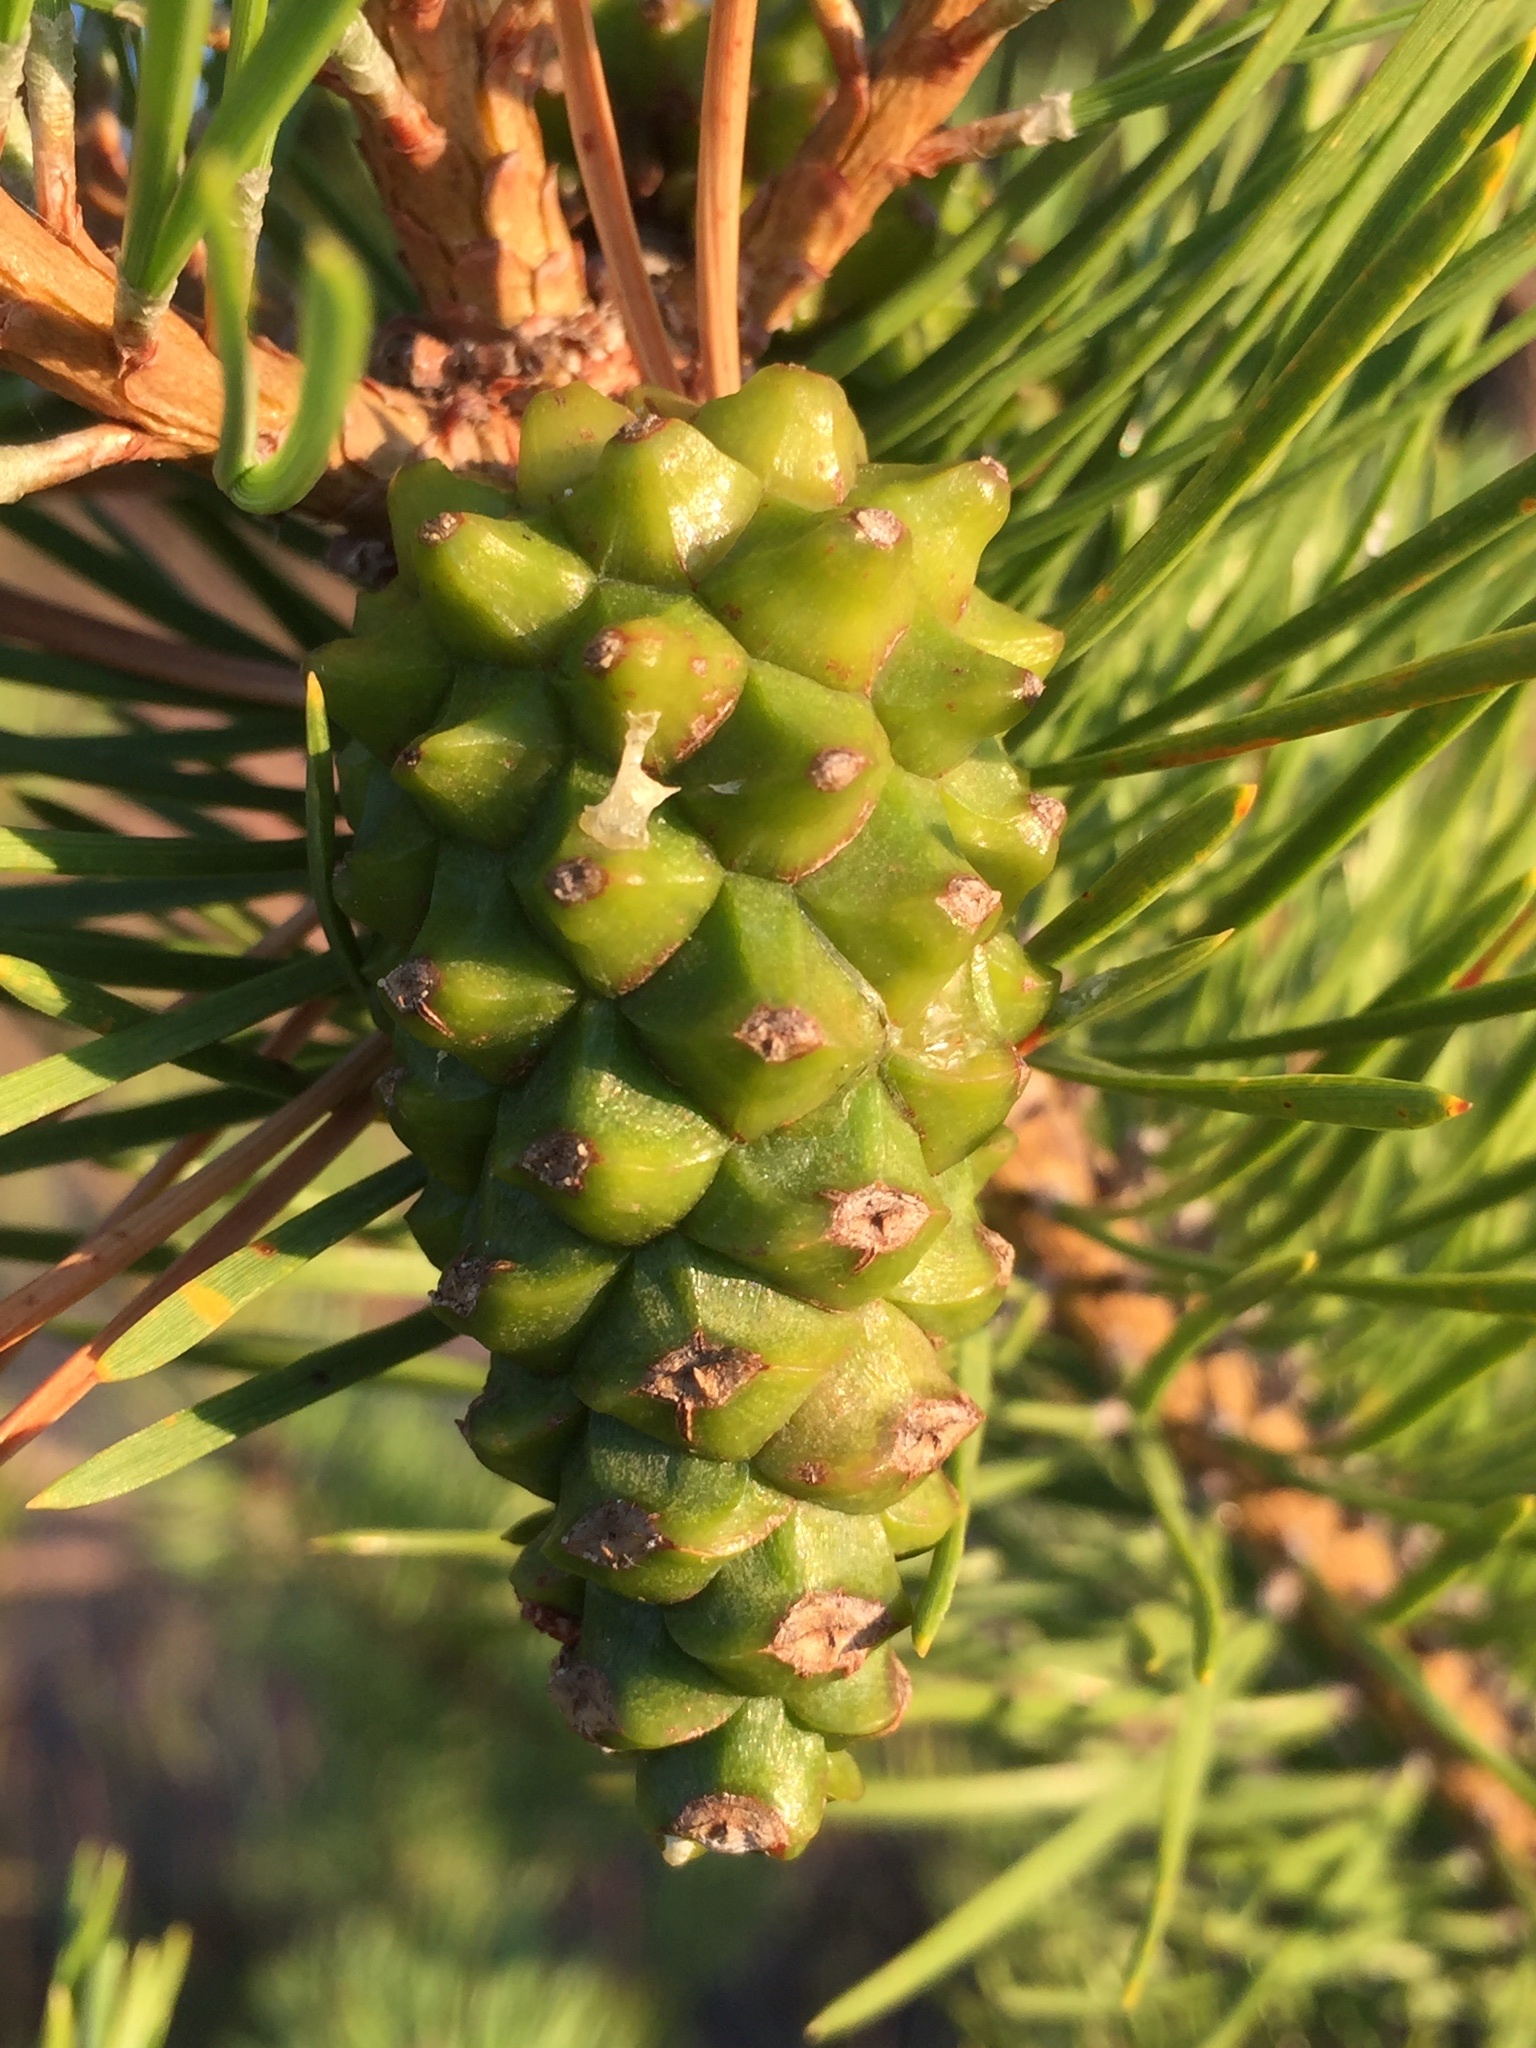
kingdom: Plantae
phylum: Tracheophyta
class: Pinopsida
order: Pinales
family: Pinaceae
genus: Pinus
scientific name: Pinus sylvestris
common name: Scots pine
